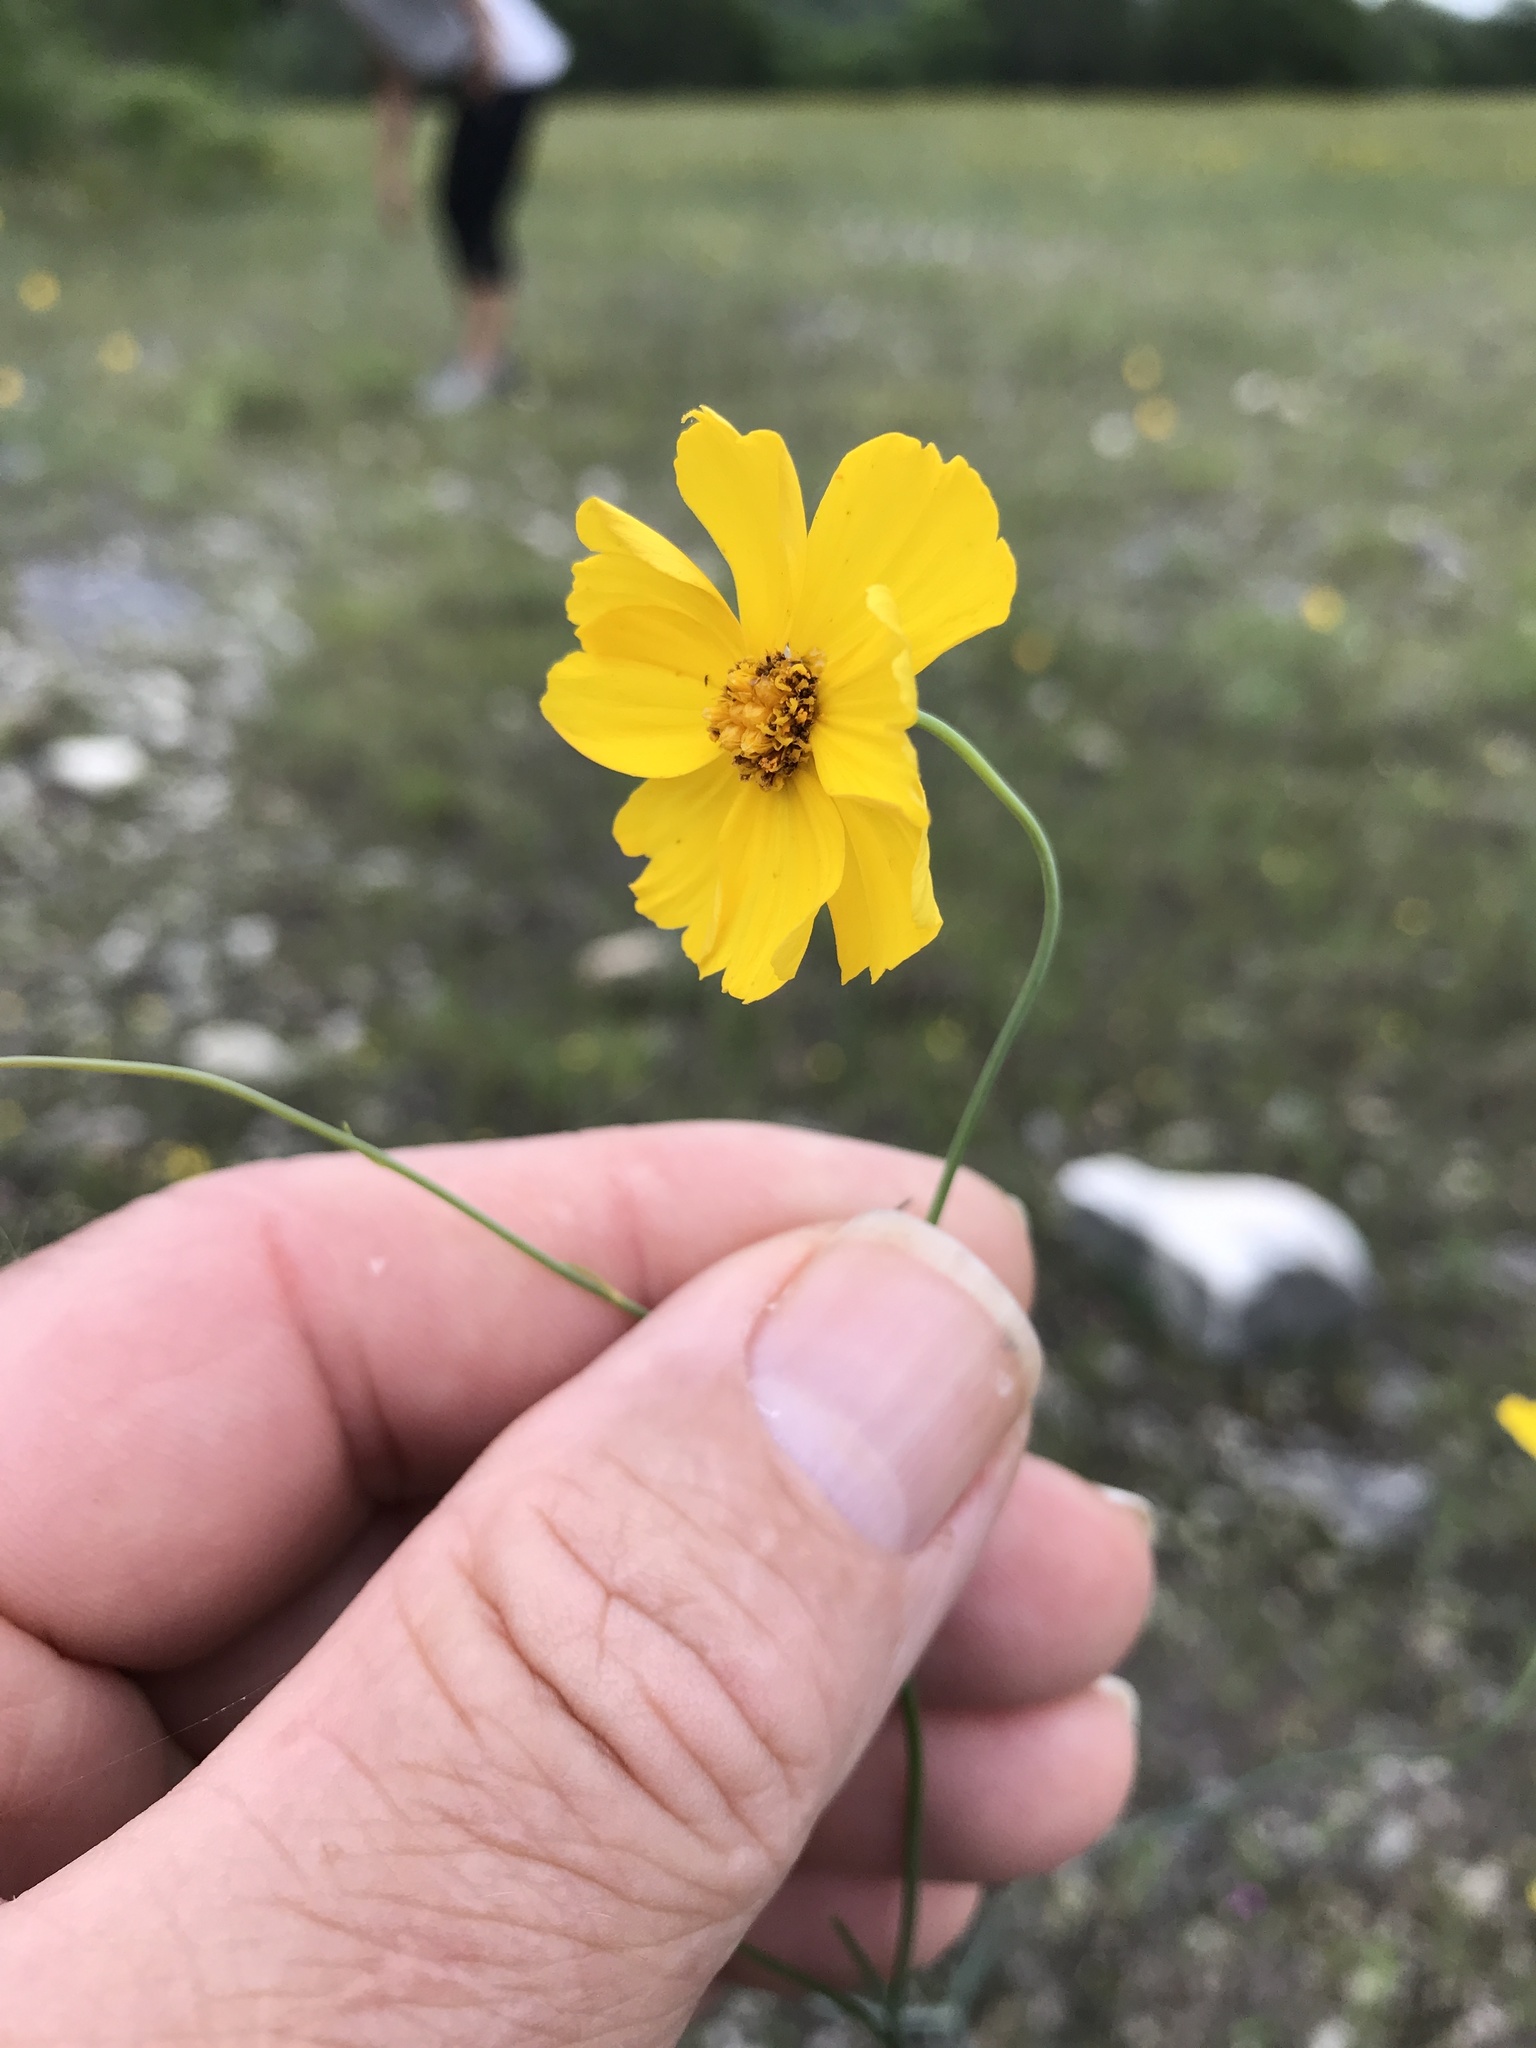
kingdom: Plantae
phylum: Tracheophyta
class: Magnoliopsida
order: Asterales
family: Asteraceae
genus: Thelesperma
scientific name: Thelesperma simplicifolium
